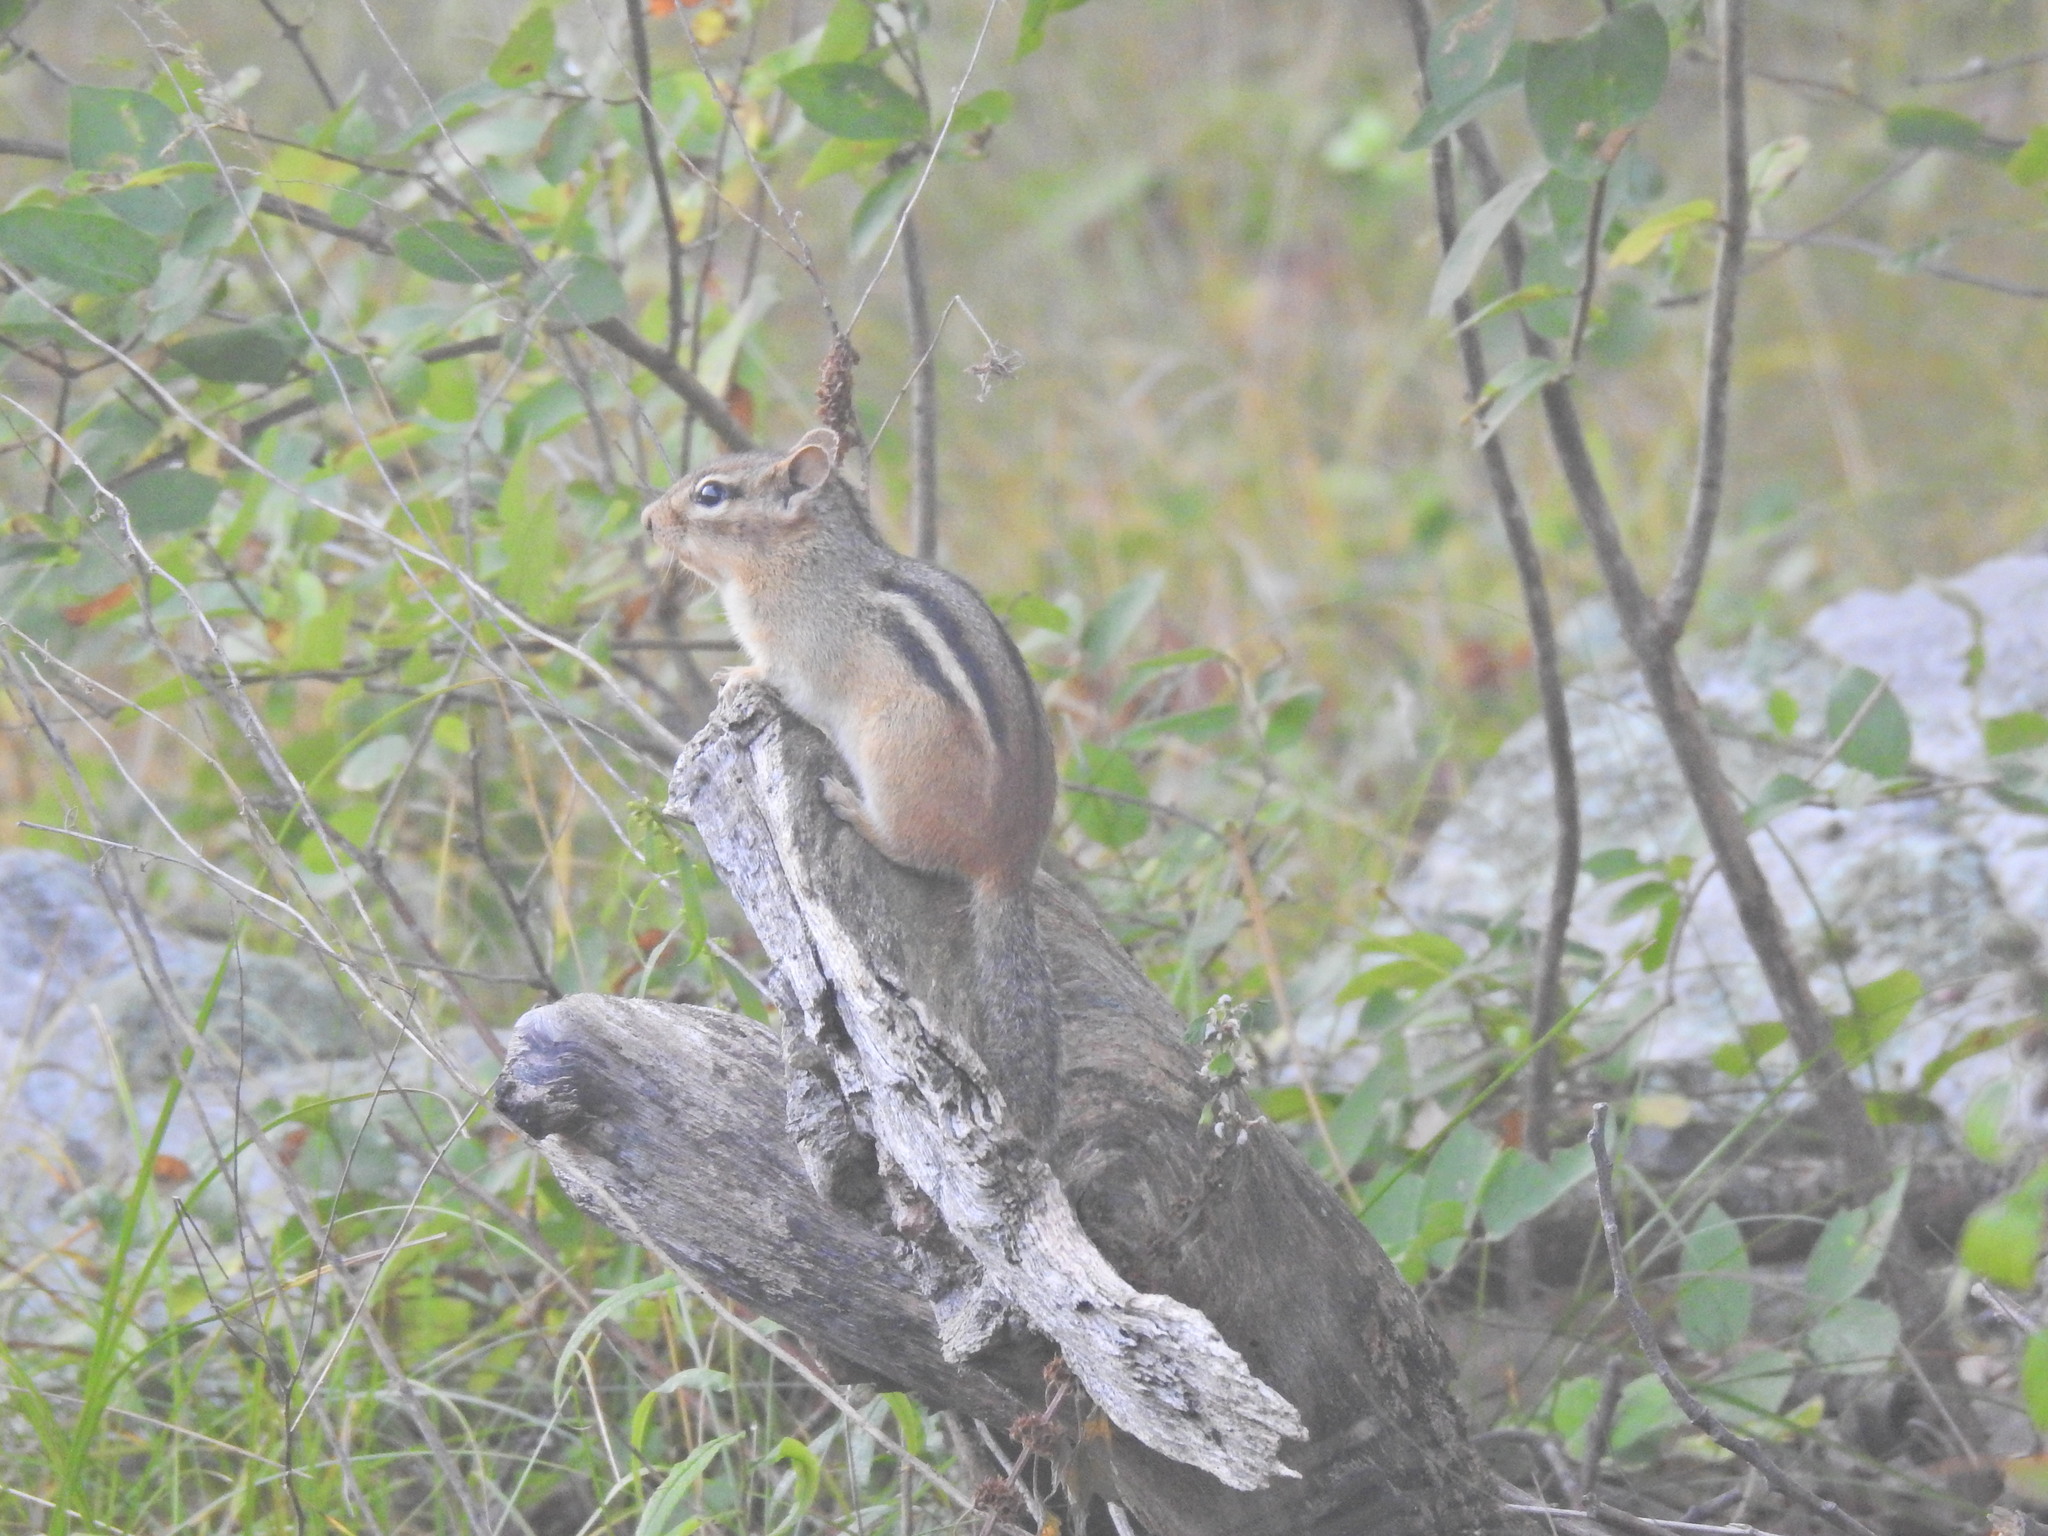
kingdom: Animalia
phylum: Chordata
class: Mammalia
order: Rodentia
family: Sciuridae
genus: Tamias
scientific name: Tamias striatus
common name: Eastern chipmunk
